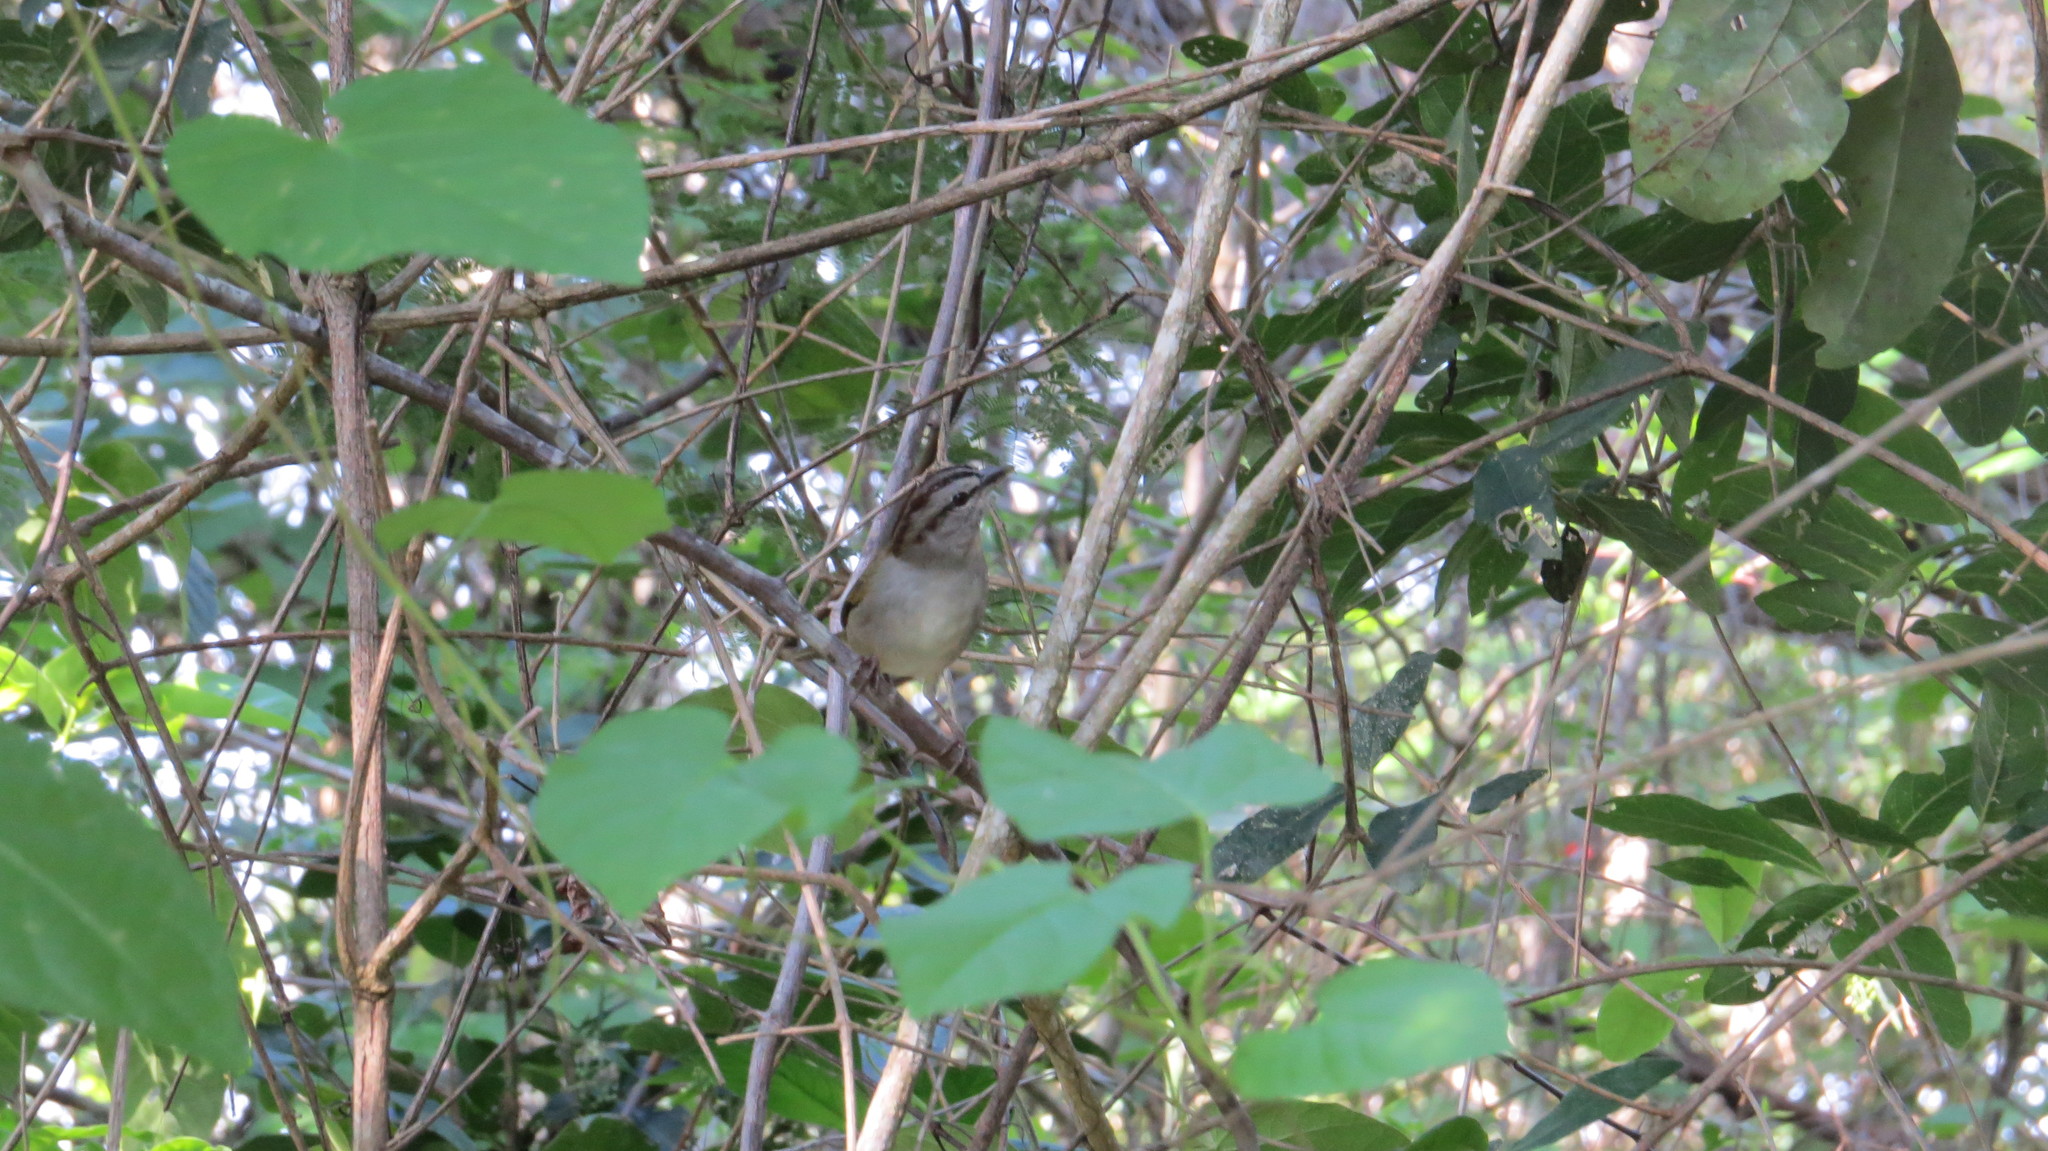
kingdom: Animalia
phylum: Chordata
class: Aves
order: Passeriformes
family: Passerellidae
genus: Arremonops
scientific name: Arremonops rufivirgatus
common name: Olive sparrow
